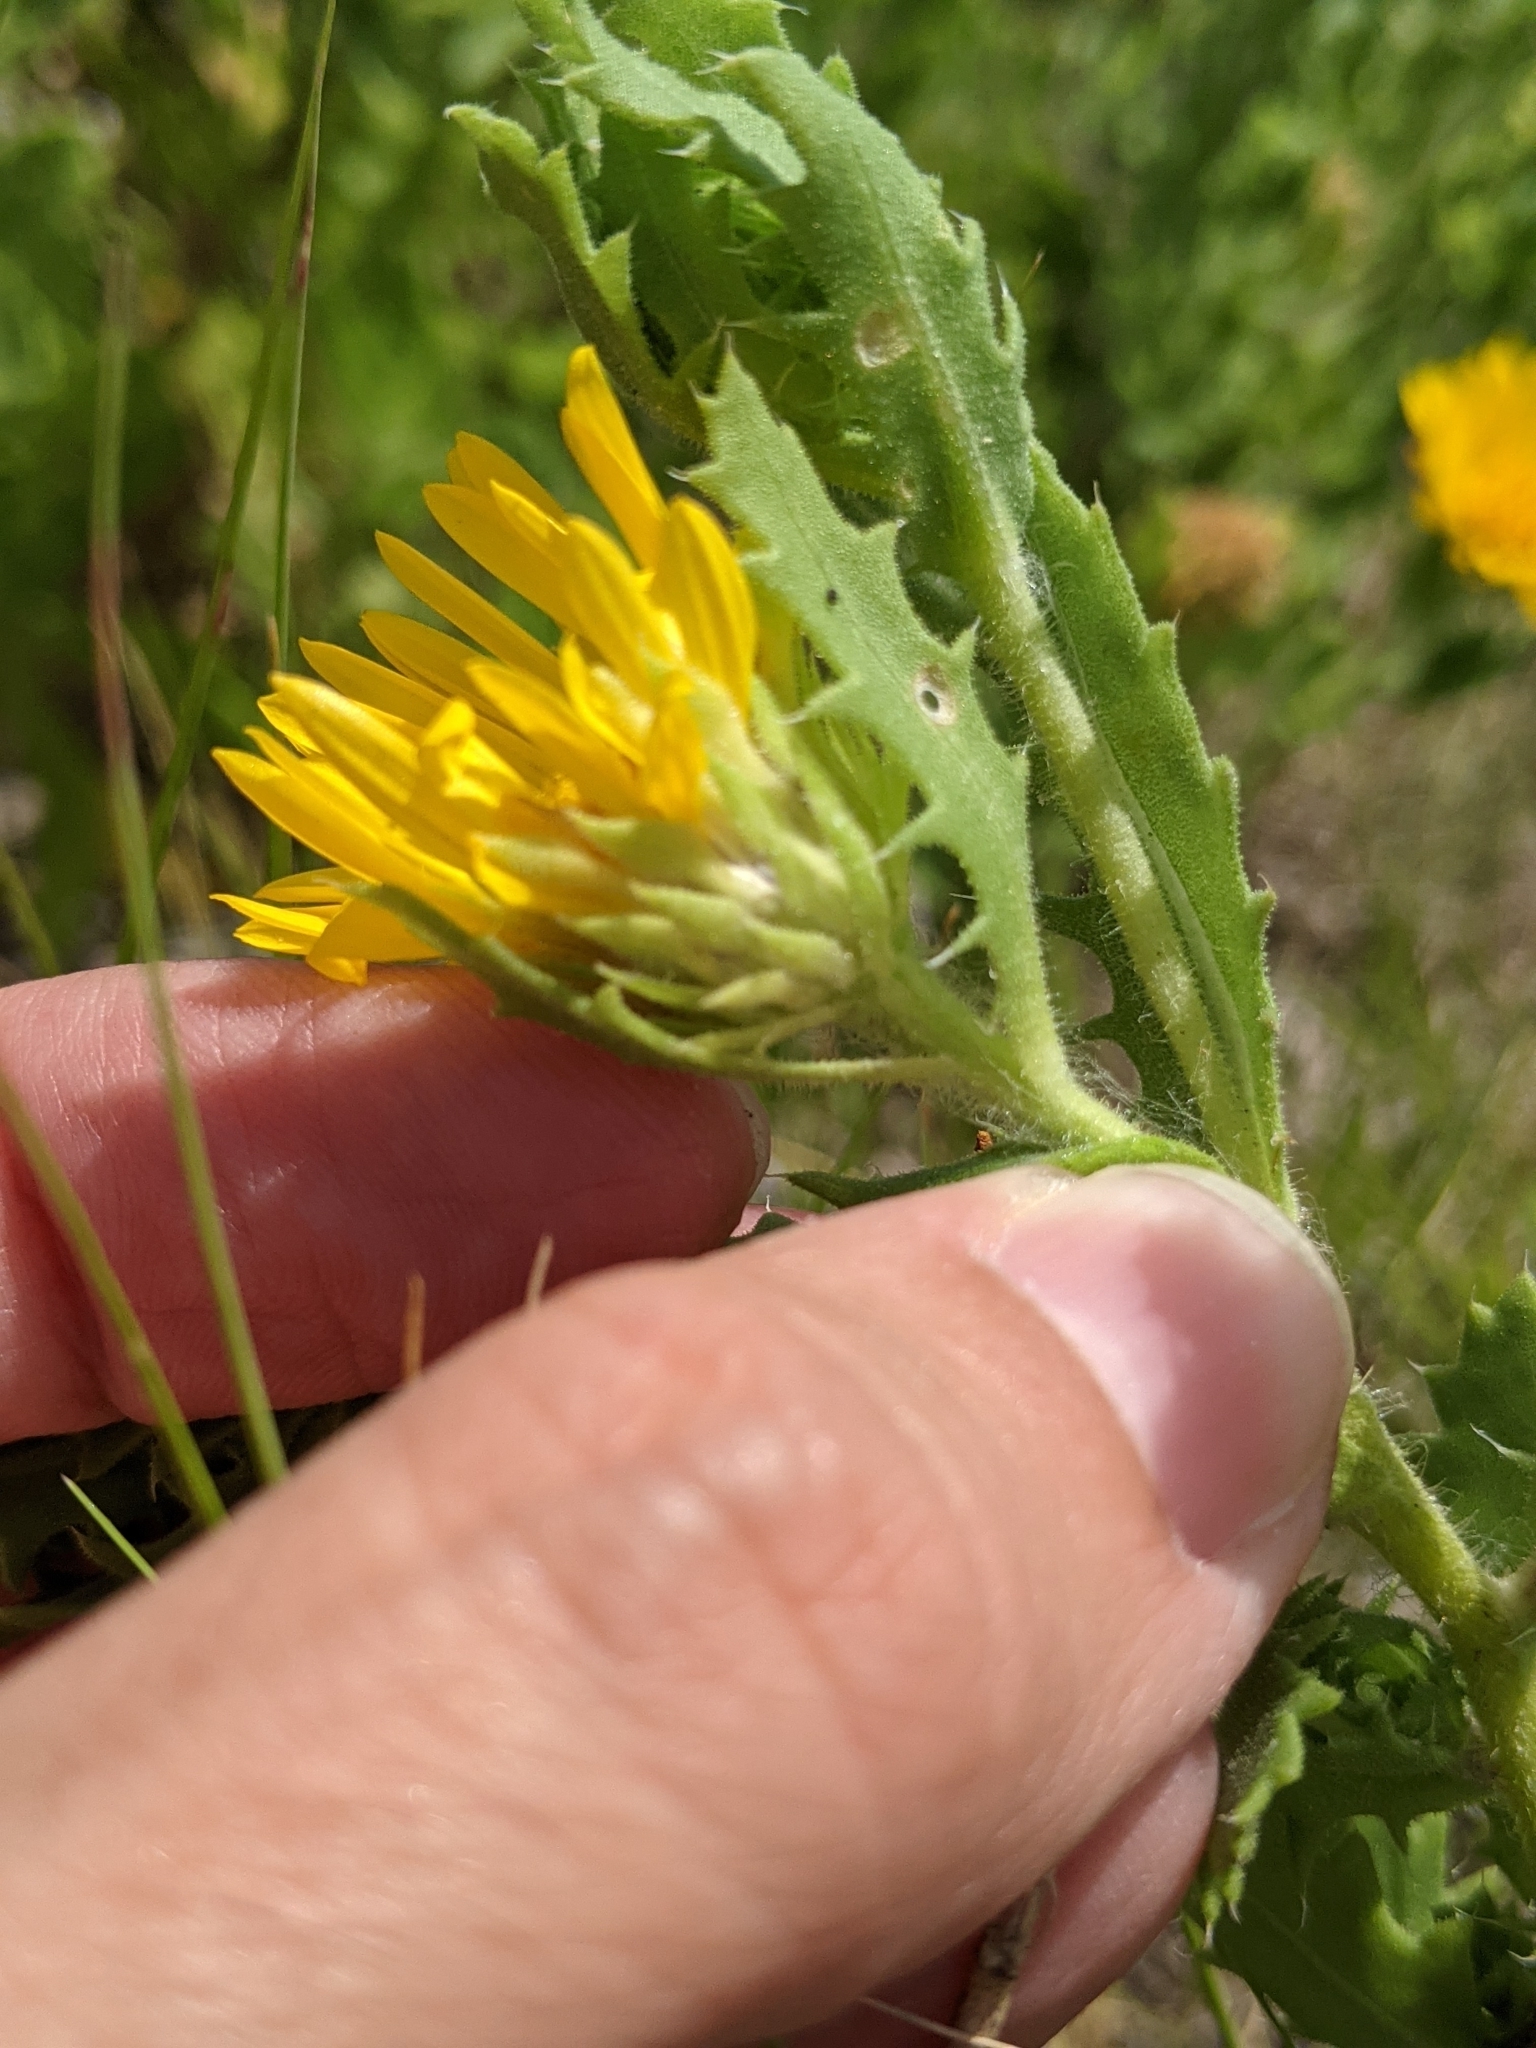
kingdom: Plantae
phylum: Tracheophyta
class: Magnoliopsida
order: Asterales
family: Asteraceae
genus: Rayjacksonia
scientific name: Rayjacksonia phyllocephala
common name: Gulf coast camphor daisy
